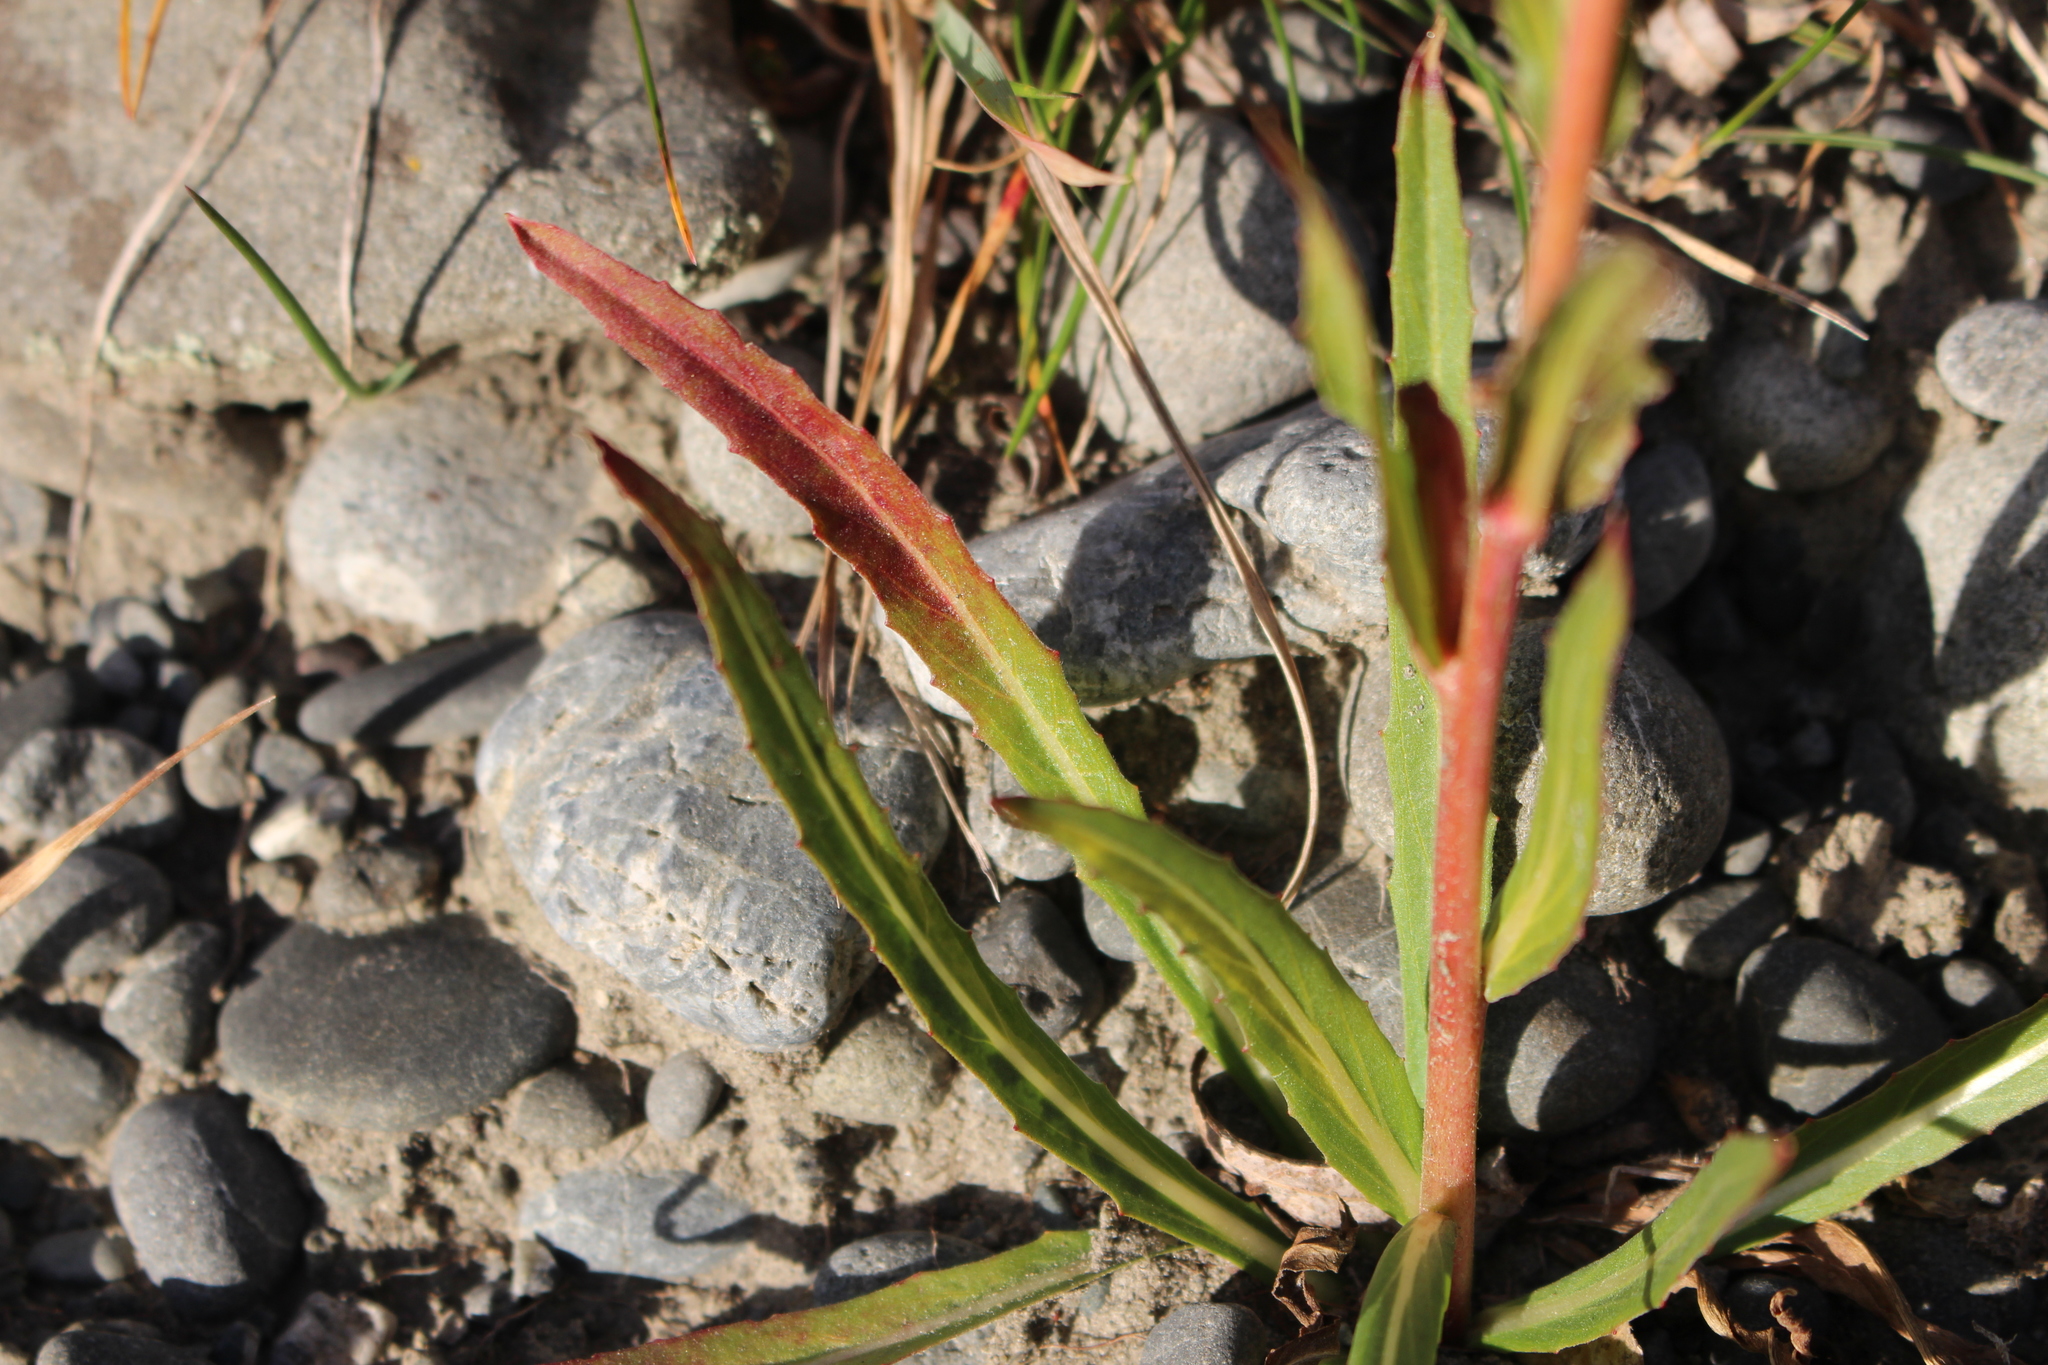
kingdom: Plantae
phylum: Tracheophyta
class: Magnoliopsida
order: Myrtales
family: Onagraceae
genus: Oenothera
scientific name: Oenothera stricta
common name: Fragrant evening-primrose
